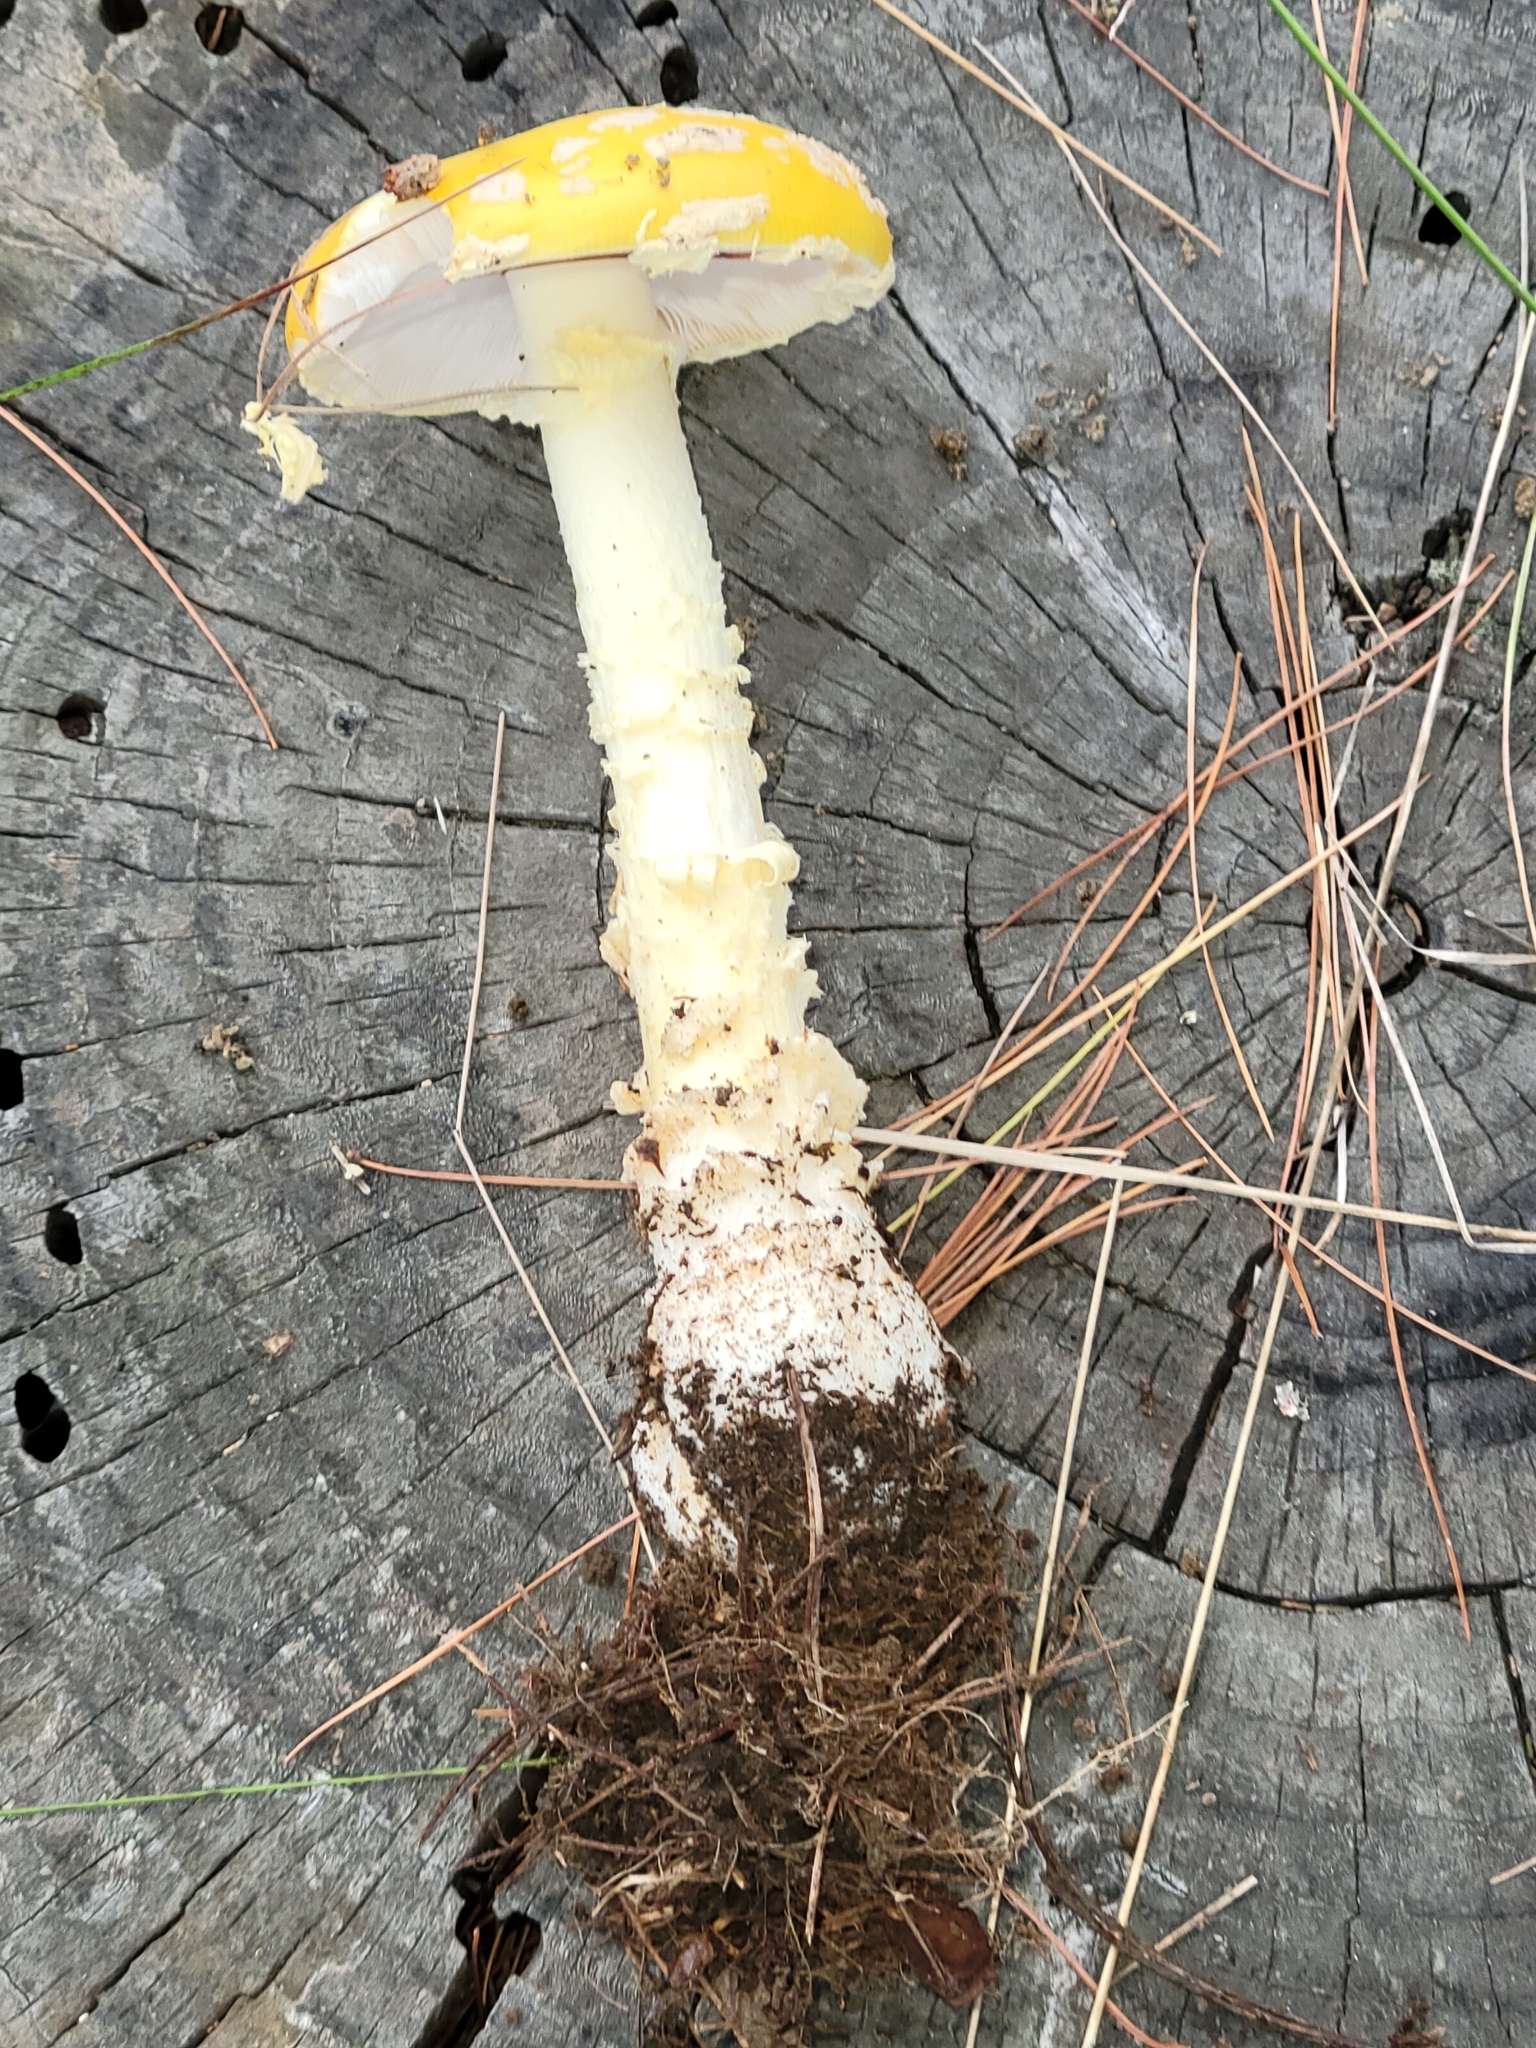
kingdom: Fungi
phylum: Basidiomycota
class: Agaricomycetes
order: Agaricales
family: Amanitaceae
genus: Amanita
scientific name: Amanita muscaria
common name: Fly agaric
